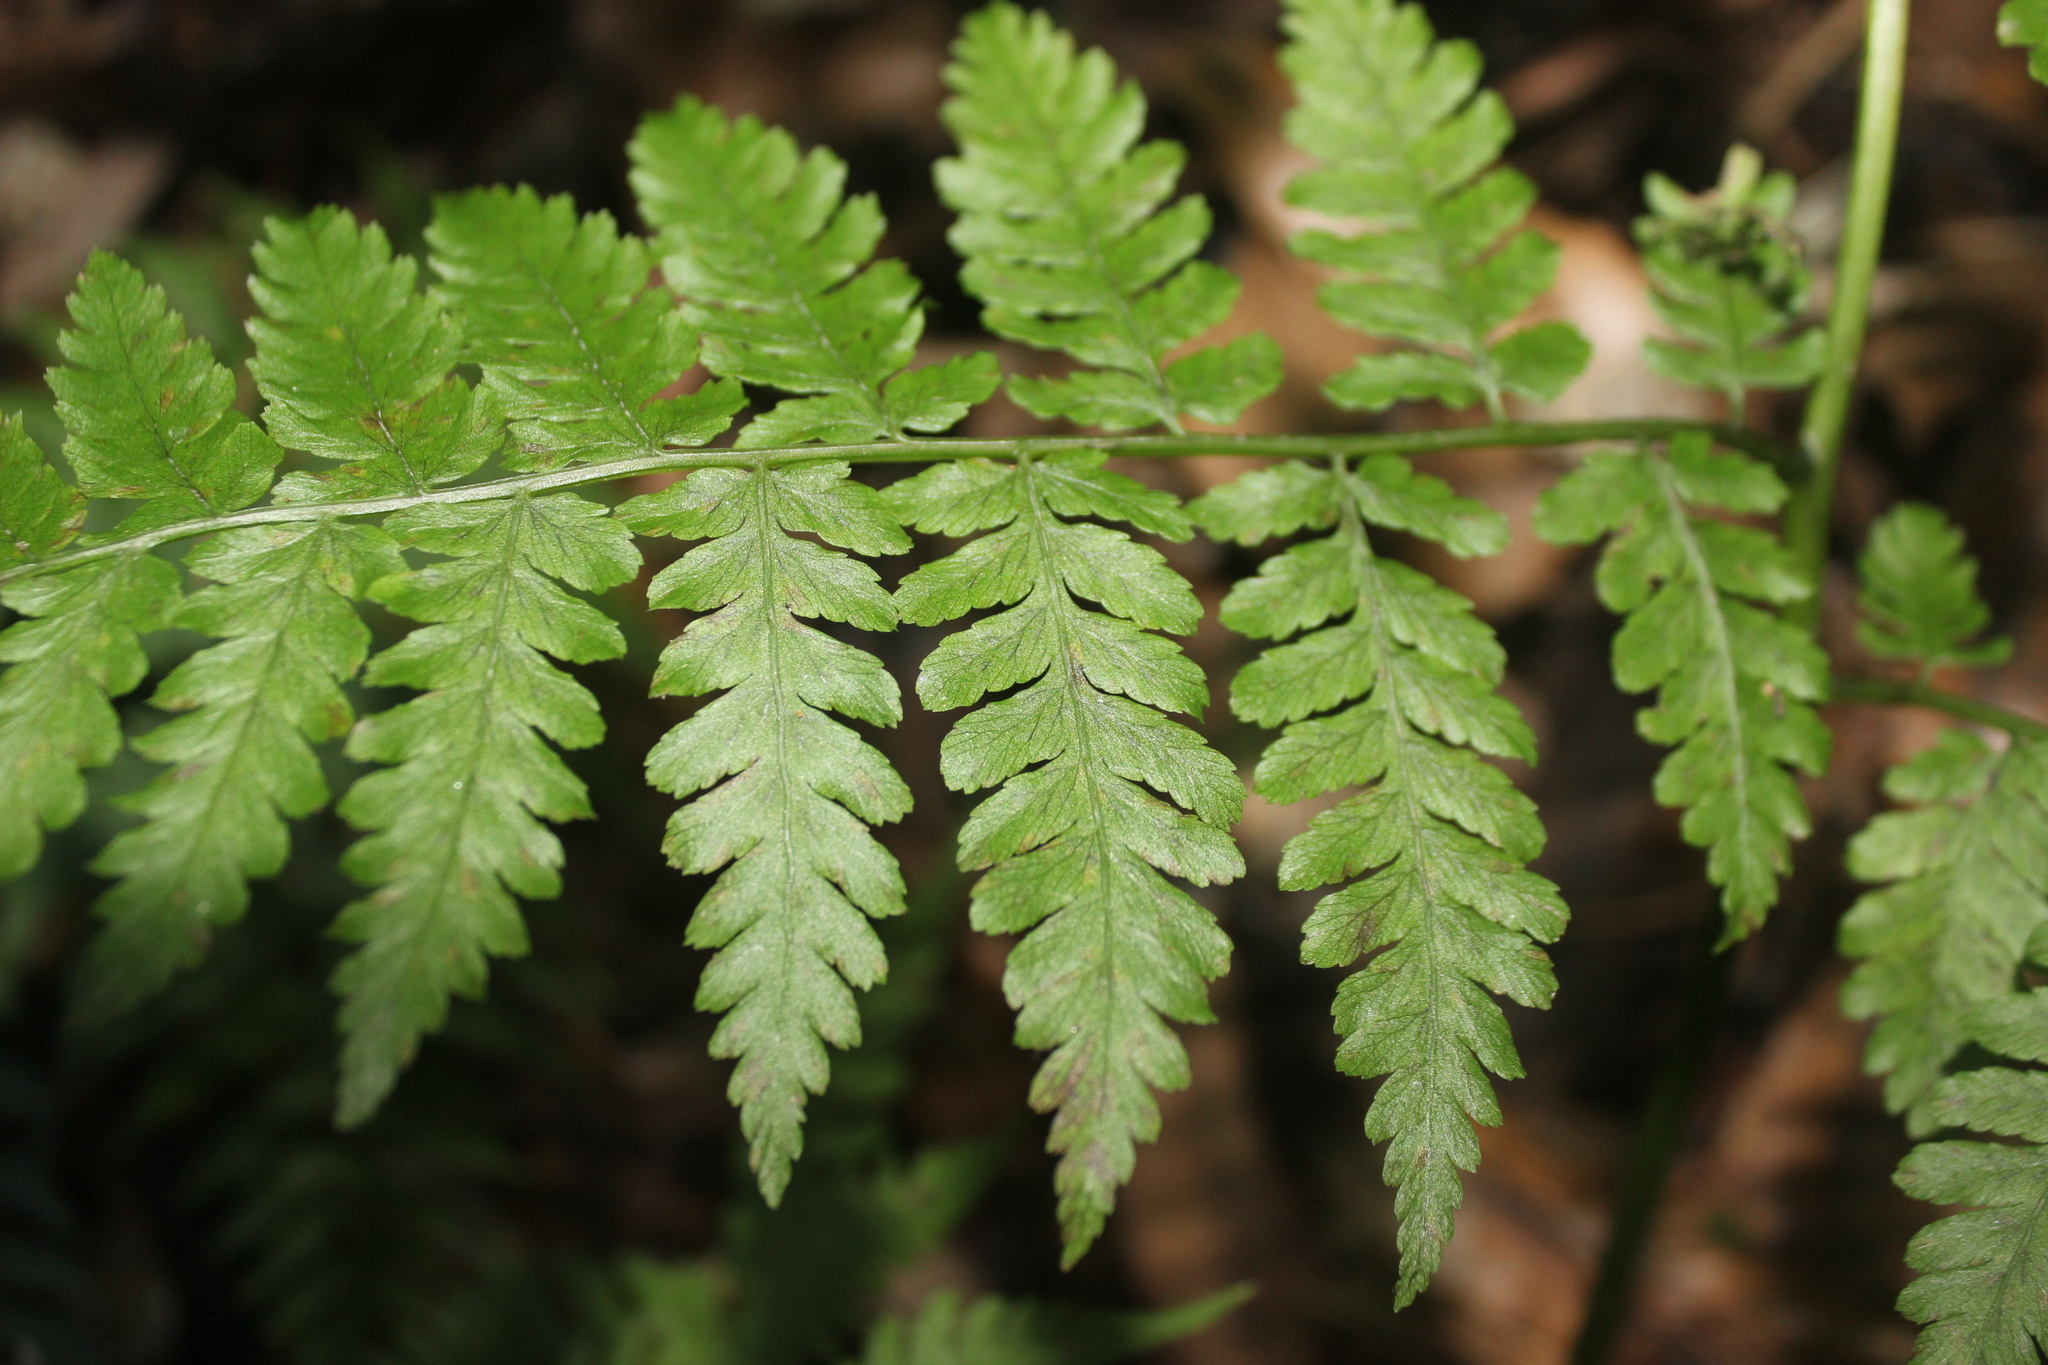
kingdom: Plantae
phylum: Tracheophyta
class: Polypodiopsida
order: Polypodiales
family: Athyriaceae
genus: Diplazium
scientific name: Diplazium australe
